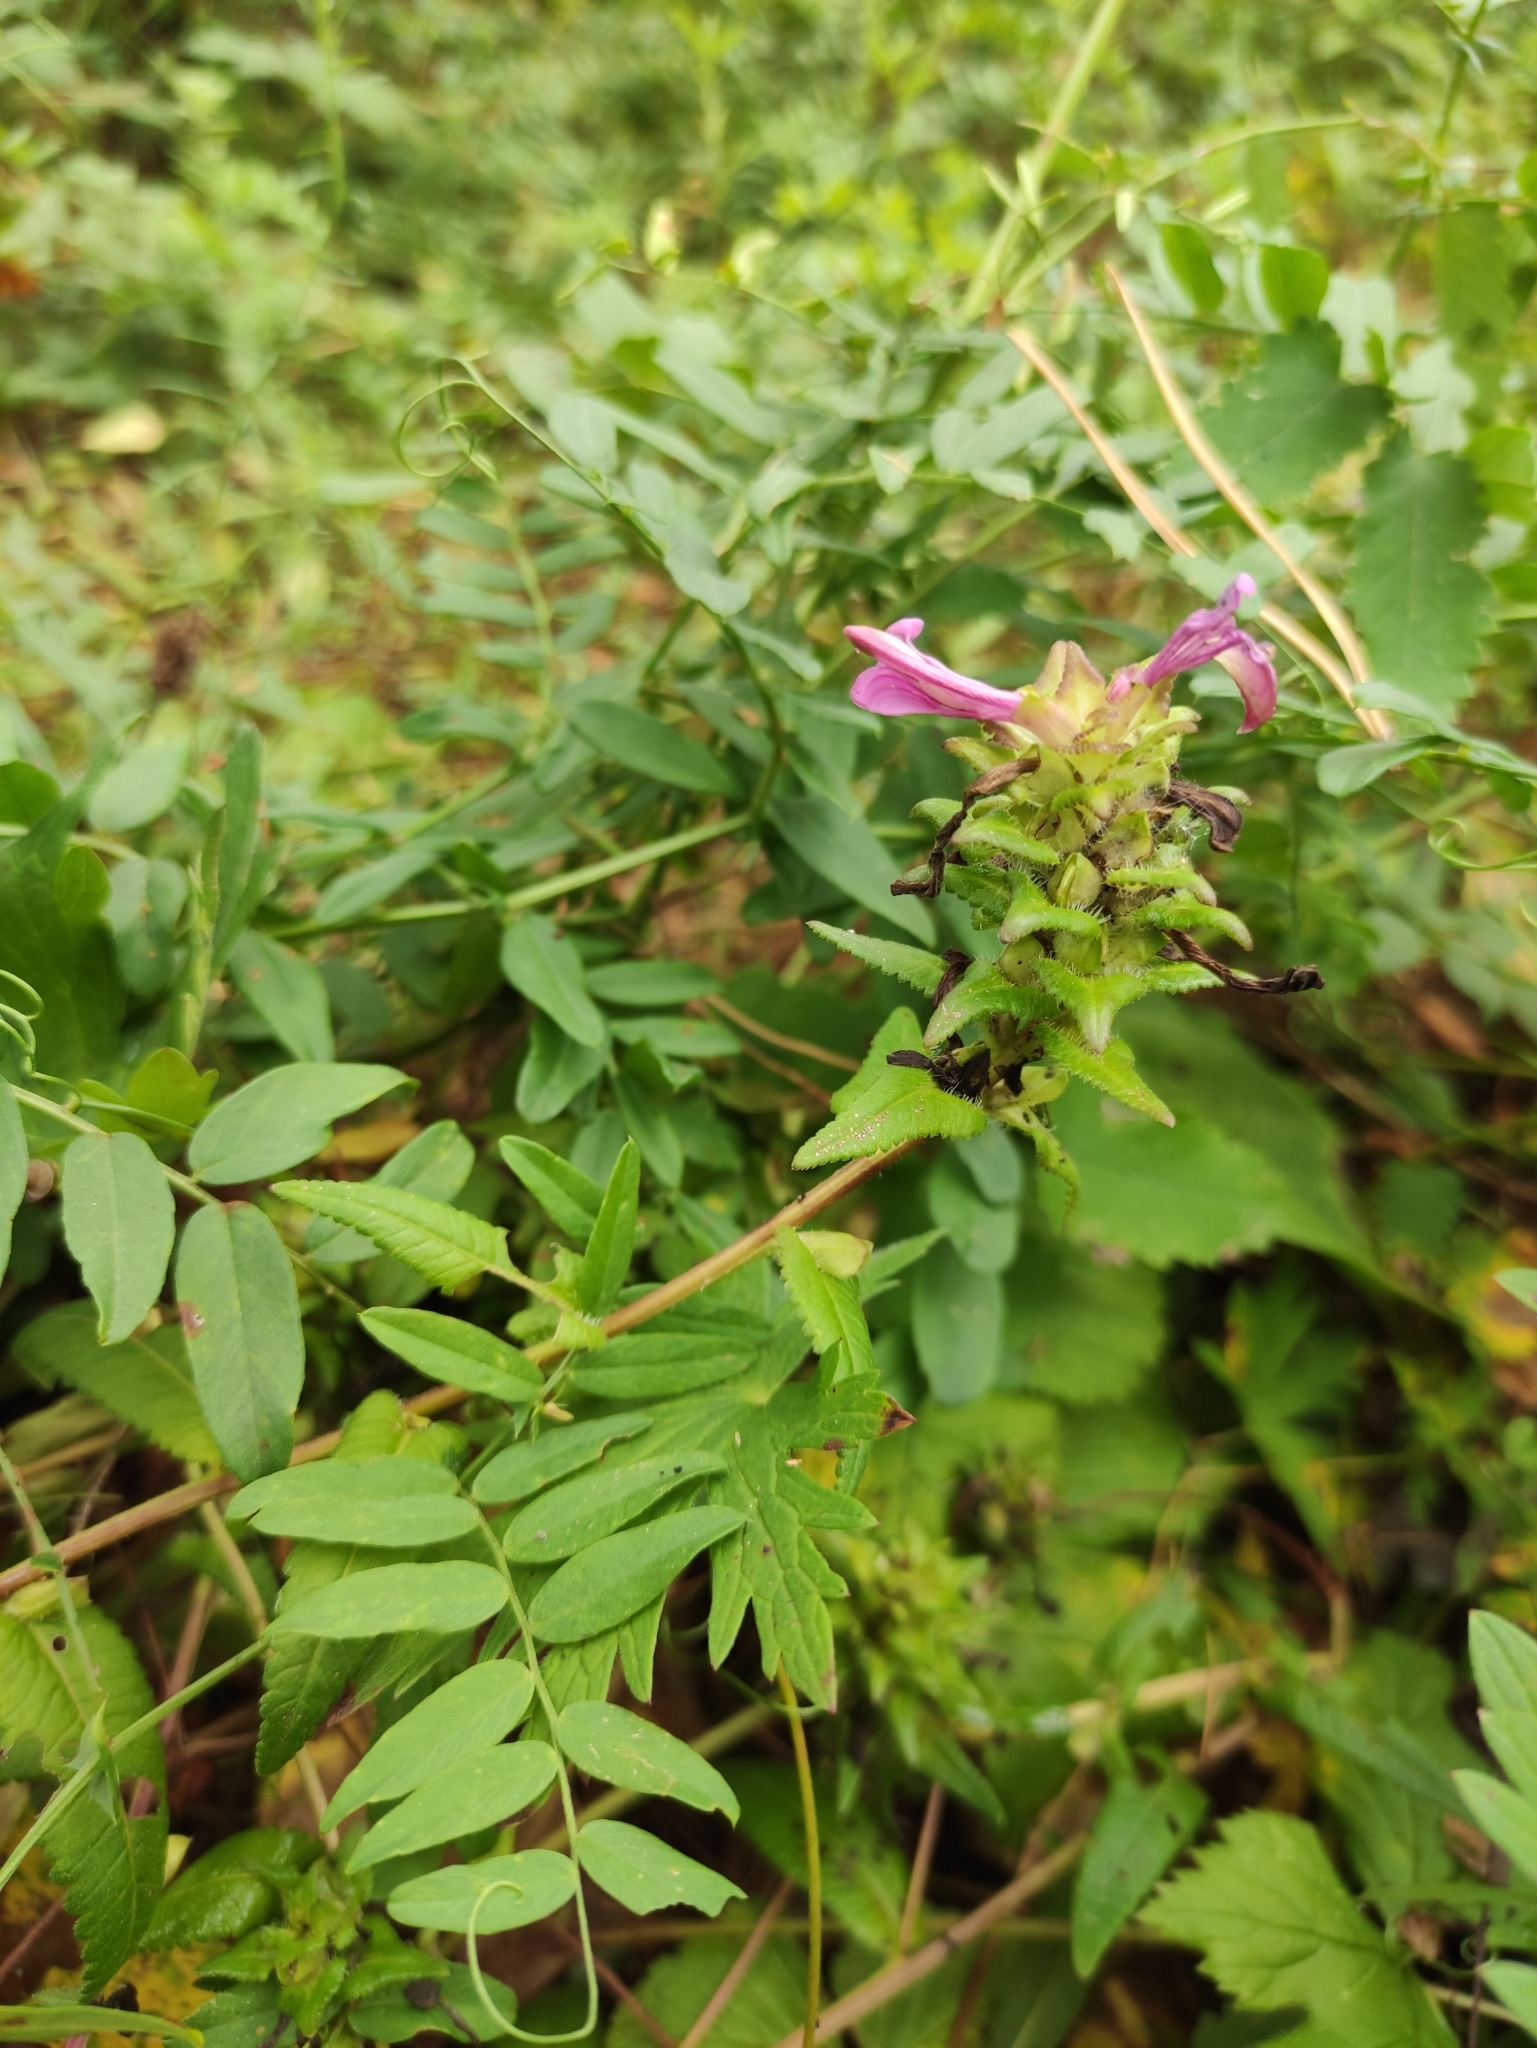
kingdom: Plantae
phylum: Tracheophyta
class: Magnoliopsida
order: Lamiales
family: Orobanchaceae
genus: Pedicularis
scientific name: Pedicularis resupinata
